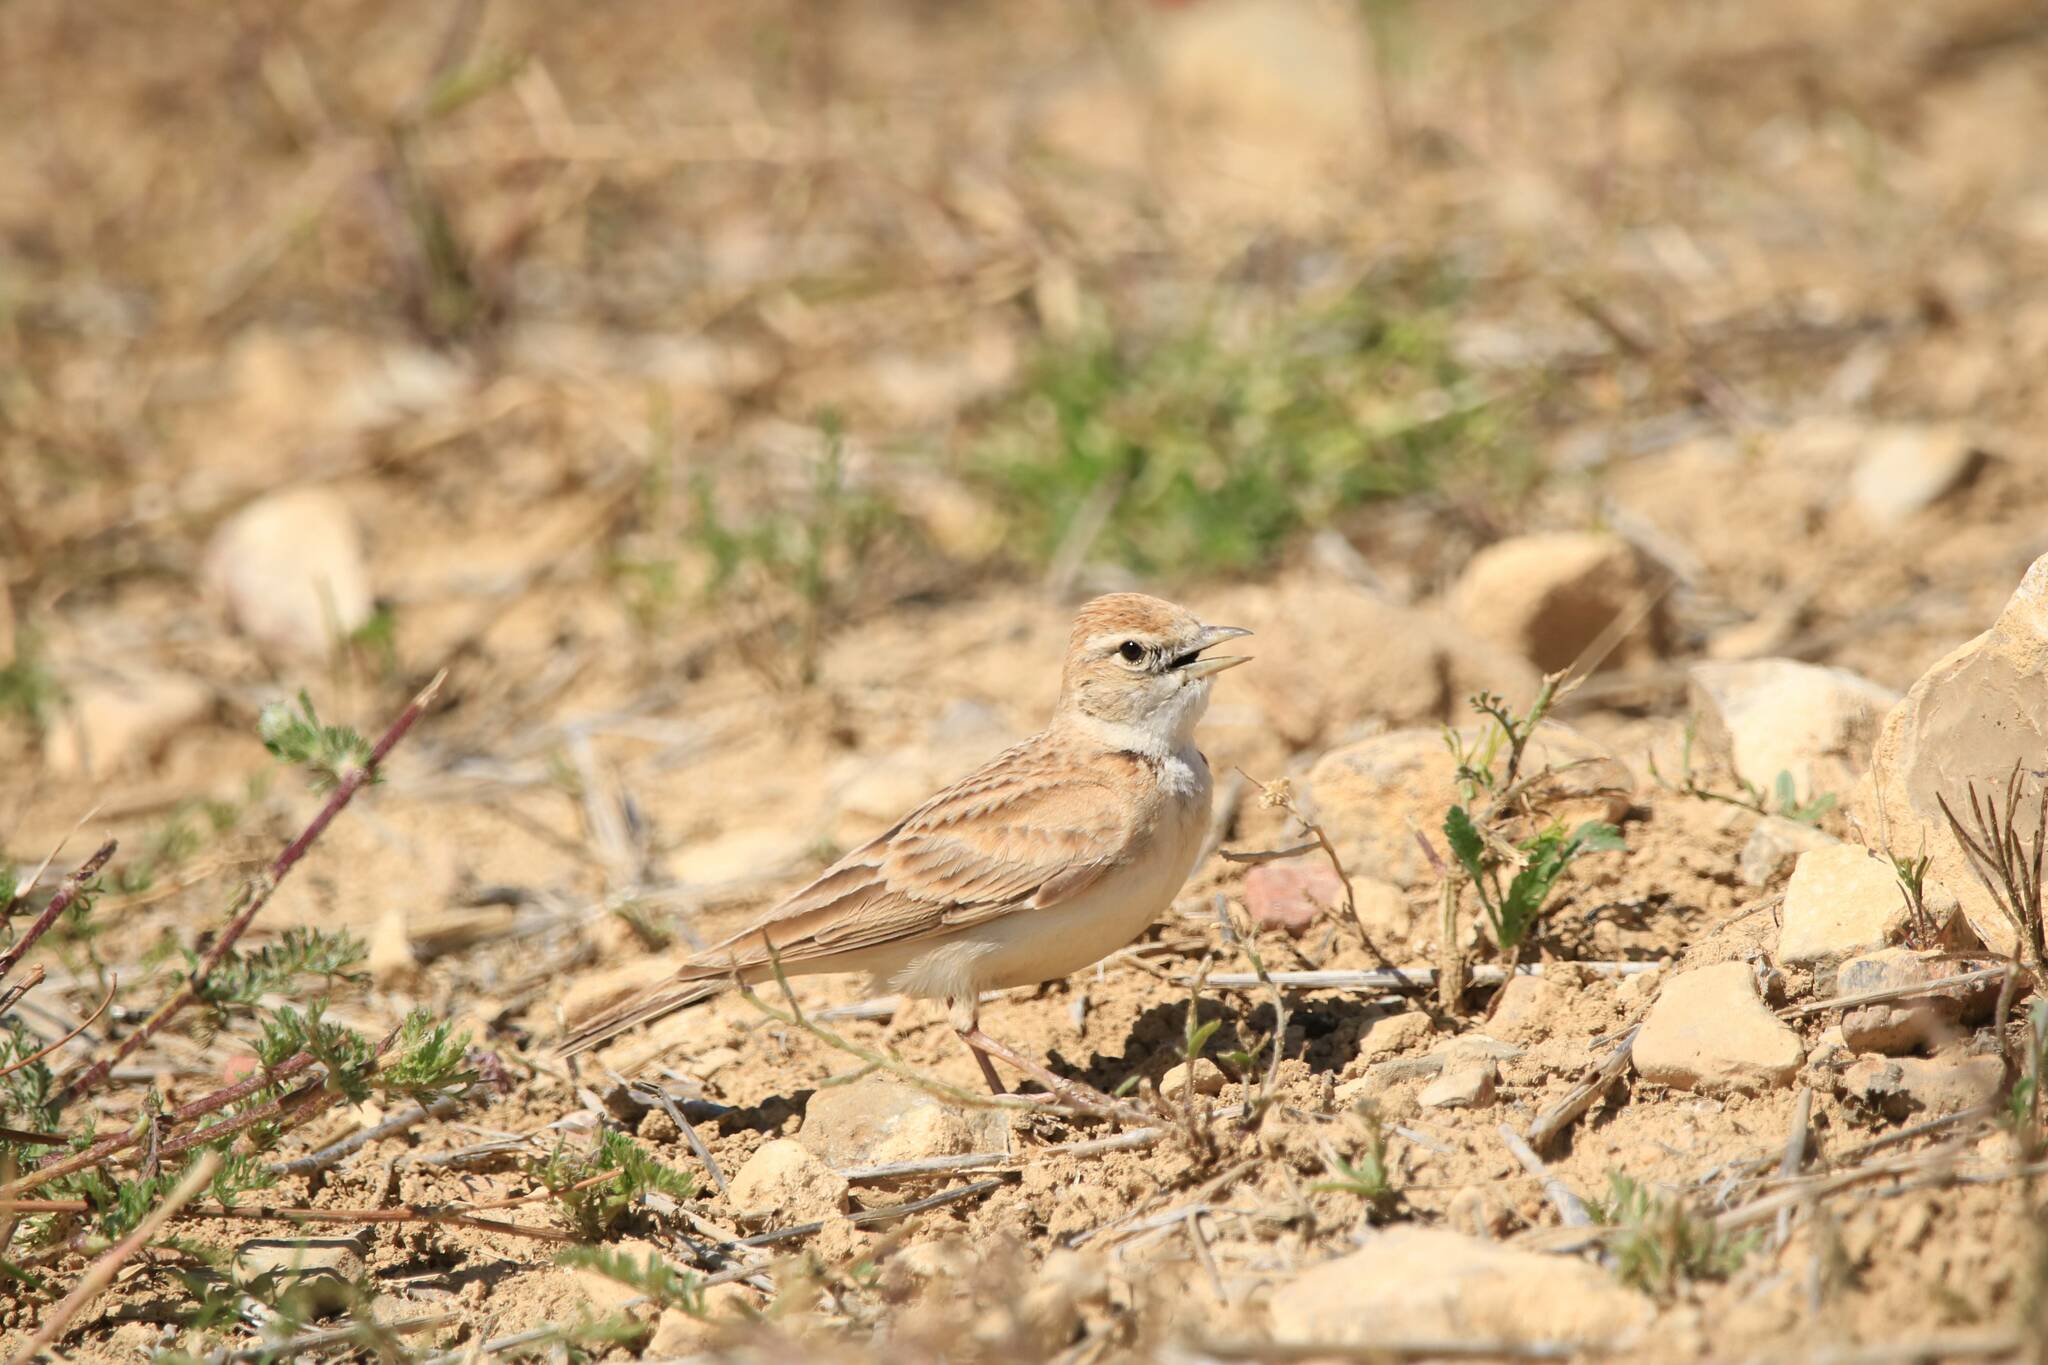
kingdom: Animalia
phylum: Chordata
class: Aves
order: Passeriformes
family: Alaudidae
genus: Calandrella
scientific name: Calandrella brachydactyla
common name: Greater short-toed lark
